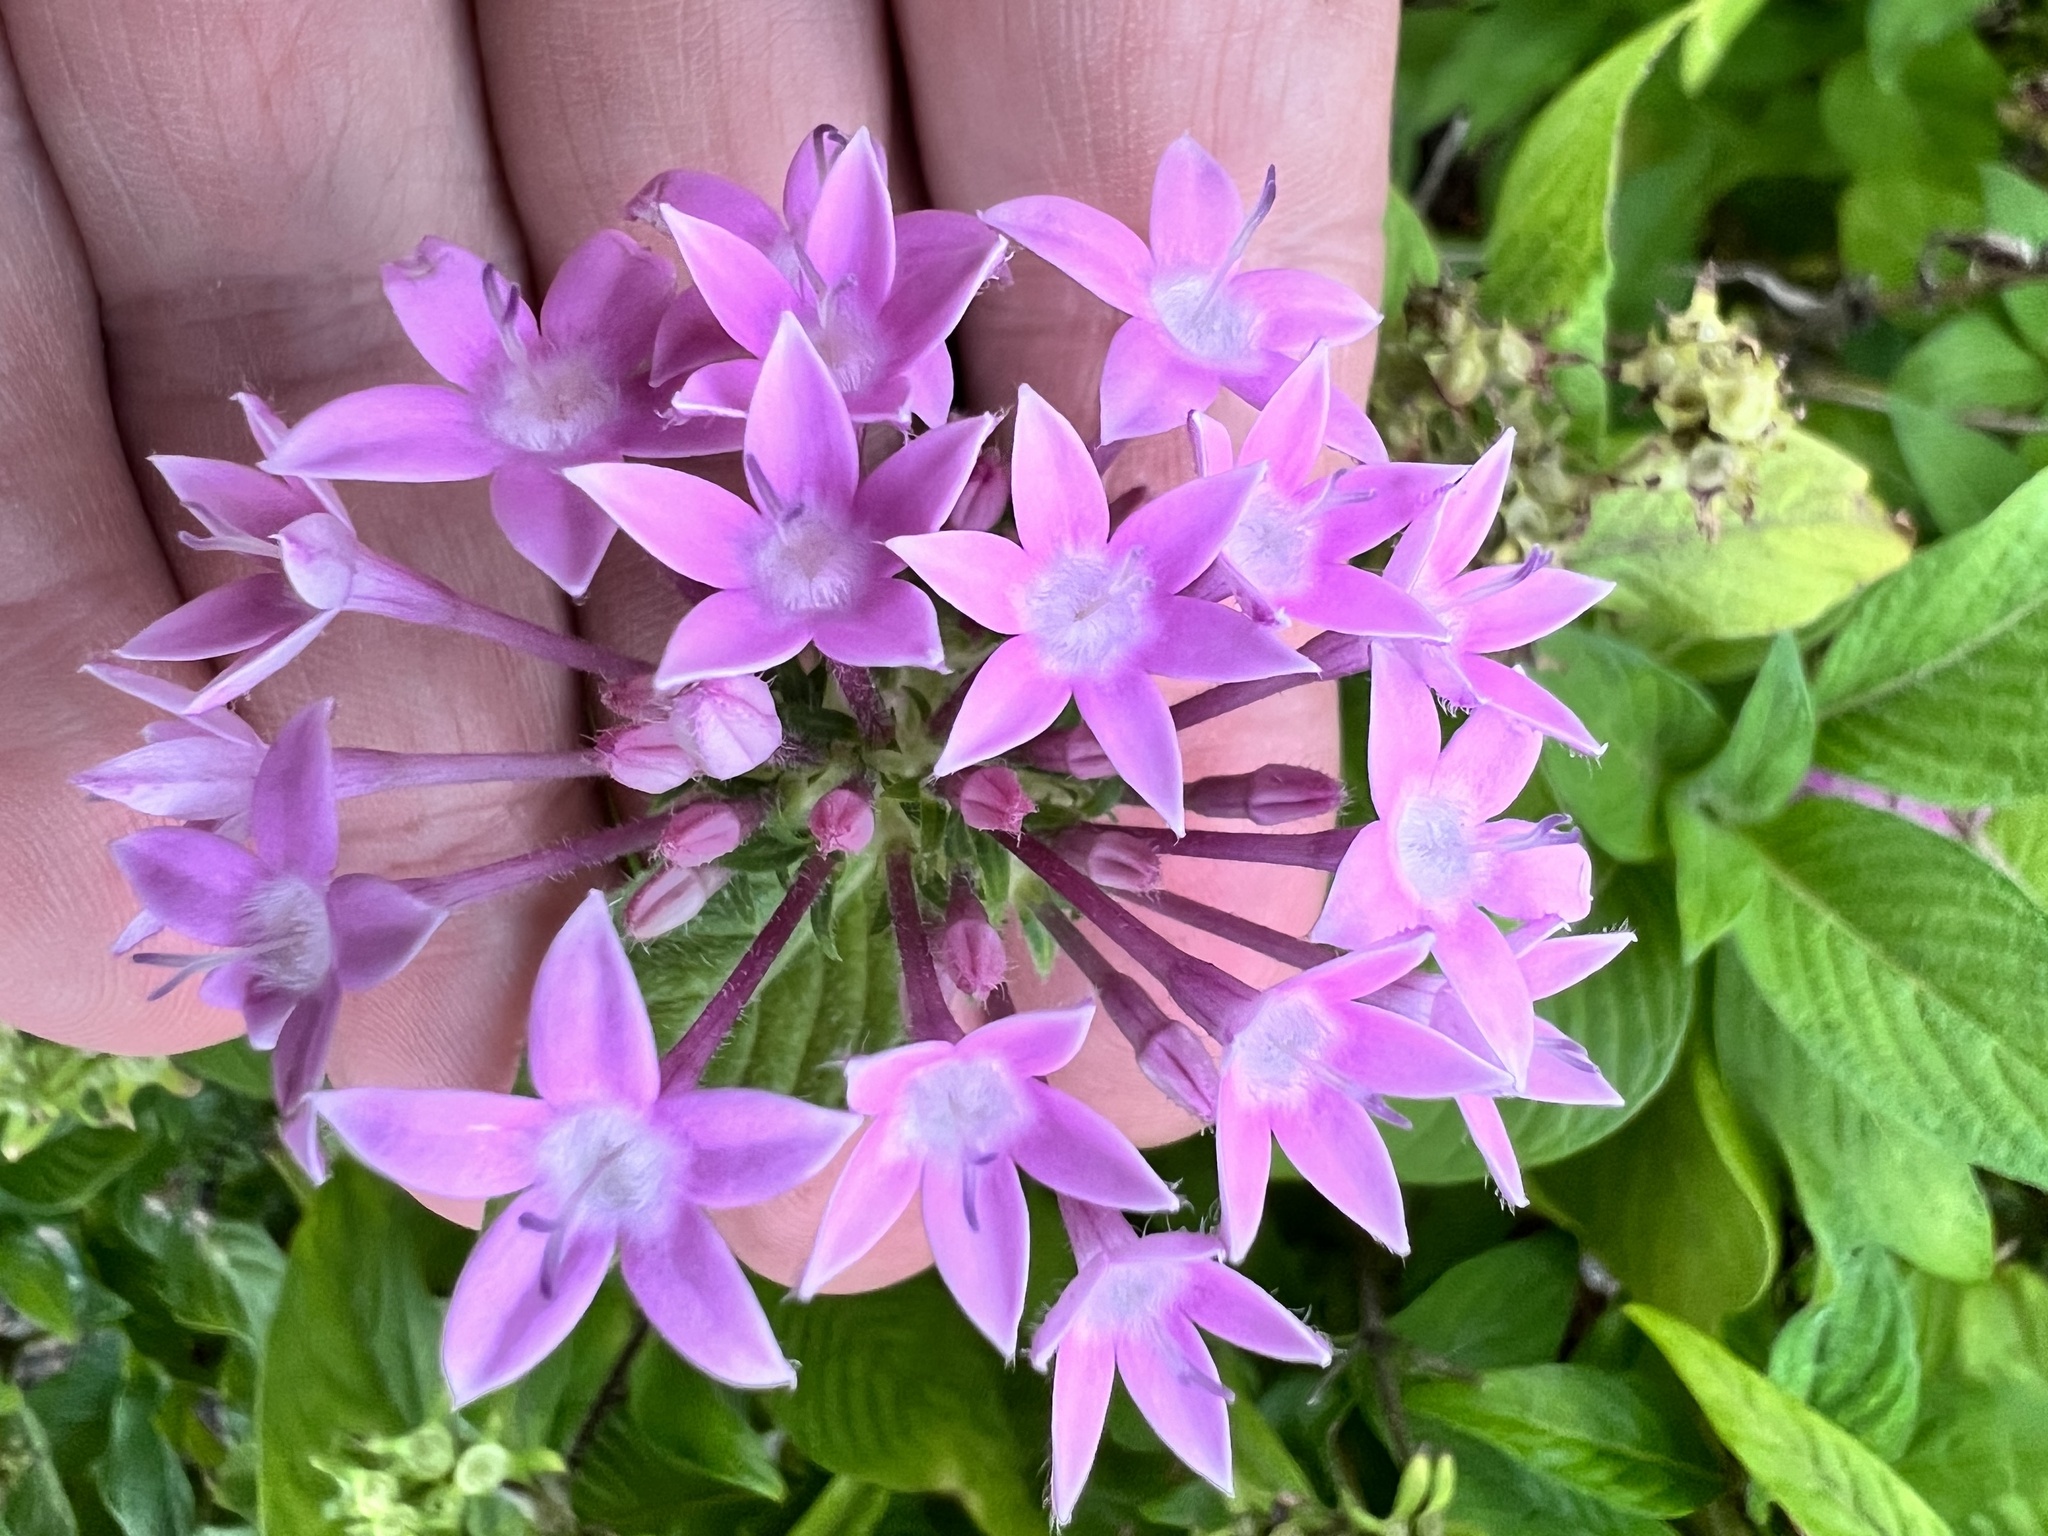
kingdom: Plantae
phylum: Tracheophyta
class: Magnoliopsida
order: Gentianales
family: Rubiaceae
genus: Pentas
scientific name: Pentas lanceolata
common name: Egyptian starcluster
